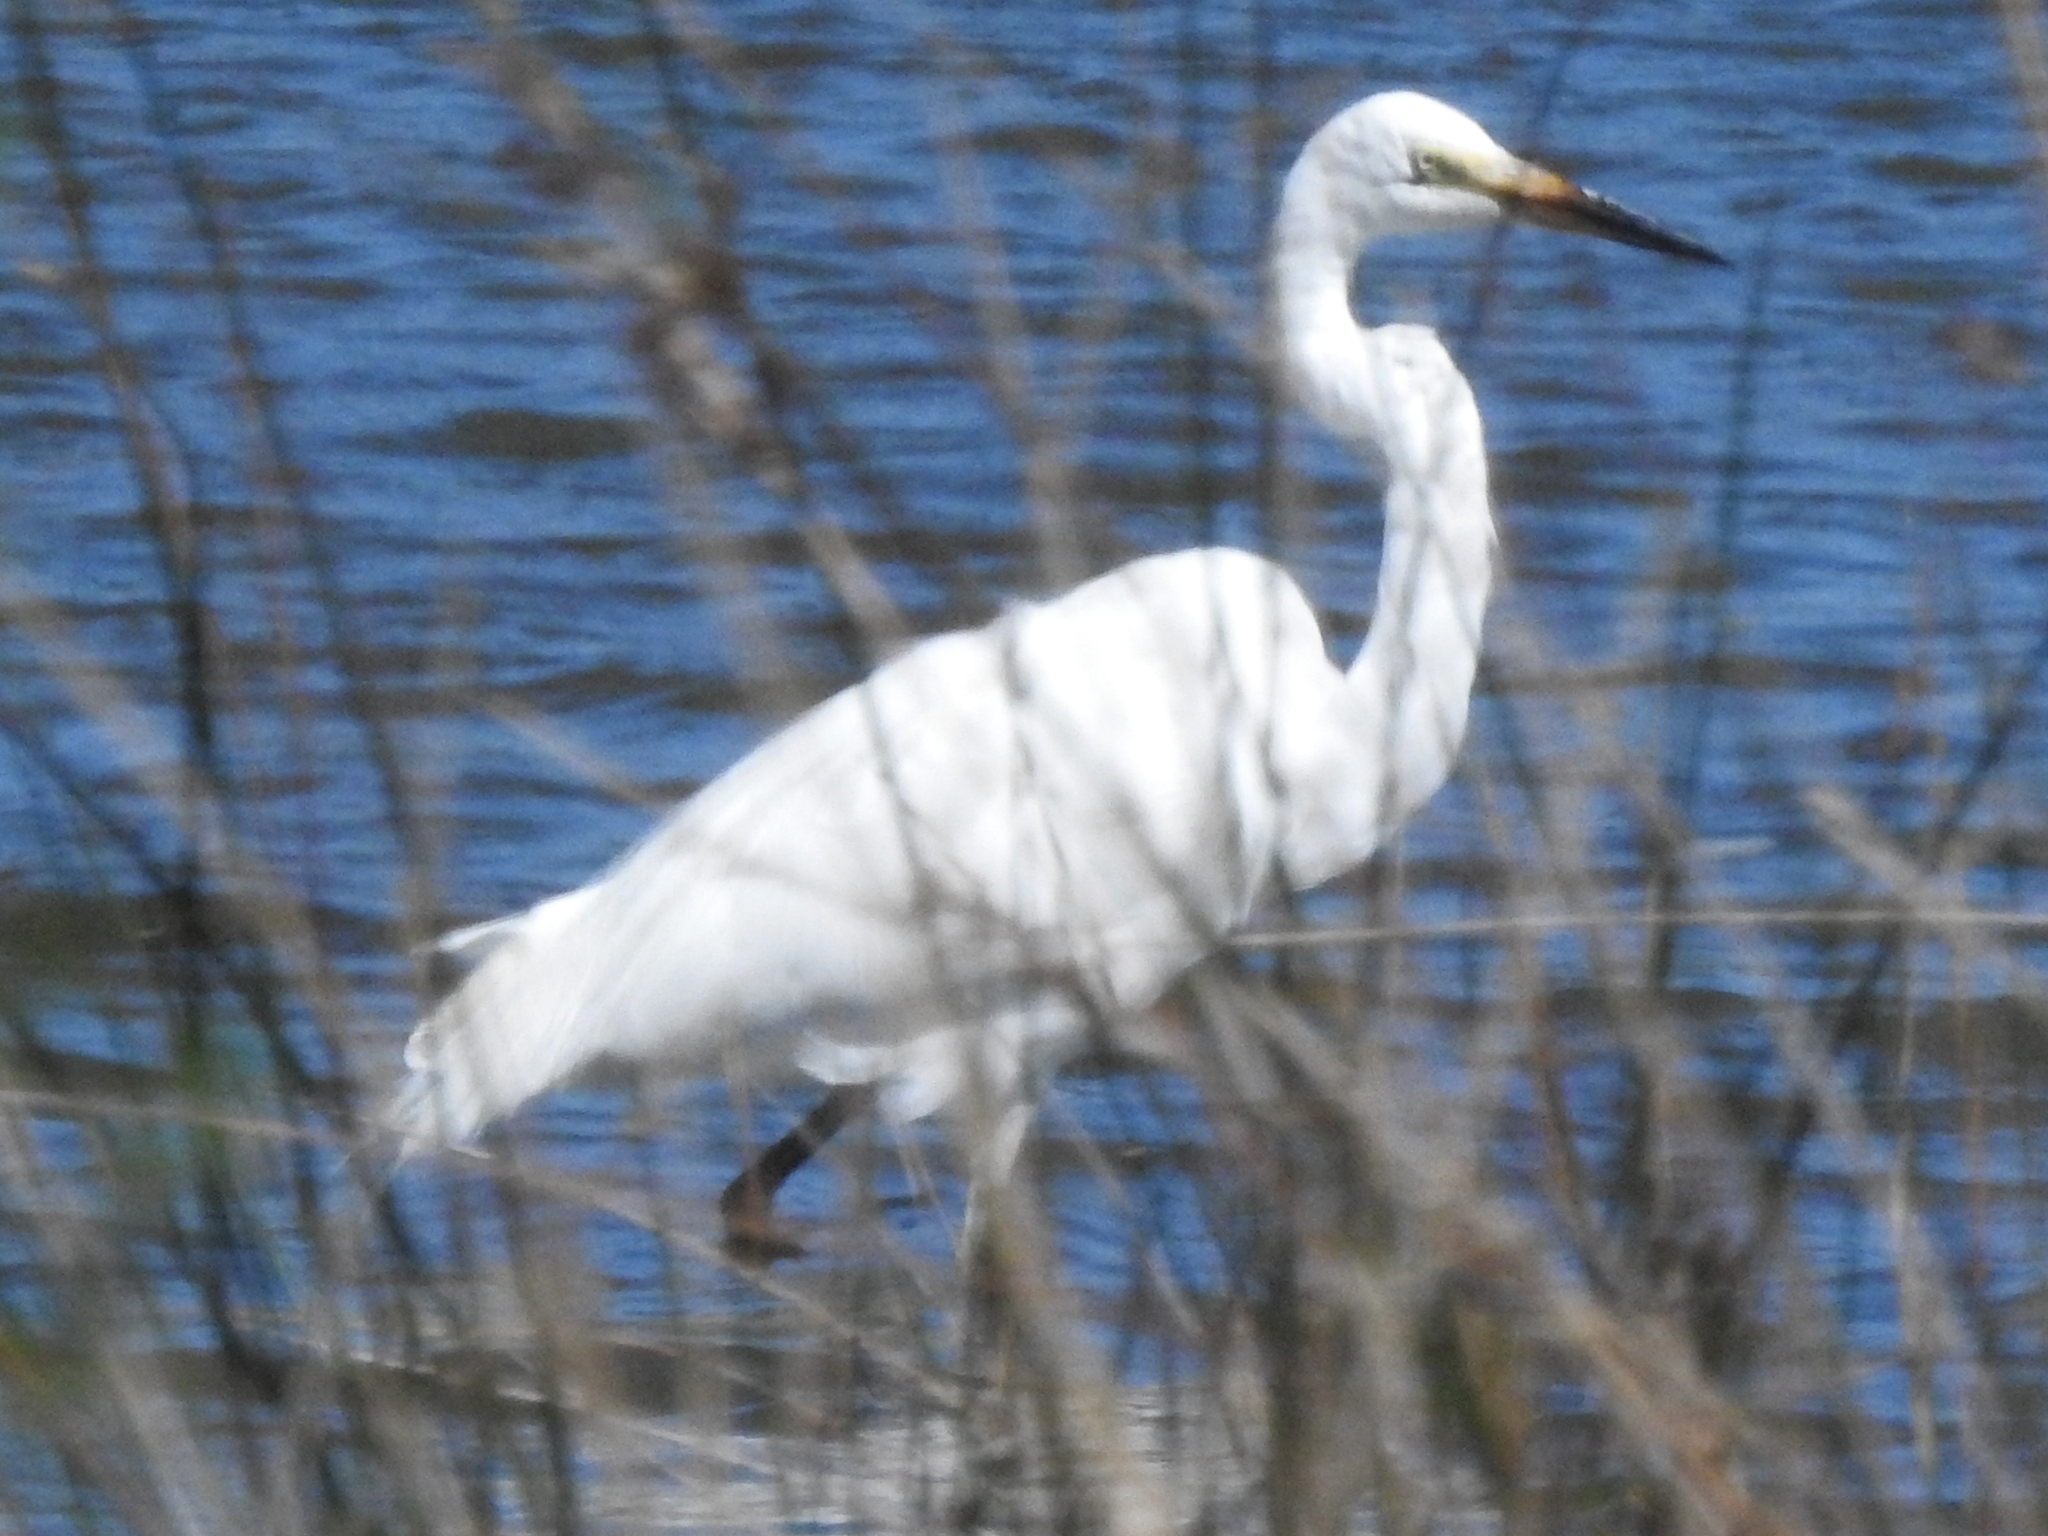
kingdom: Animalia
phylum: Chordata
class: Aves
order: Pelecaniformes
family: Ardeidae
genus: Ardea
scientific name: Ardea alba
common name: Great egret
